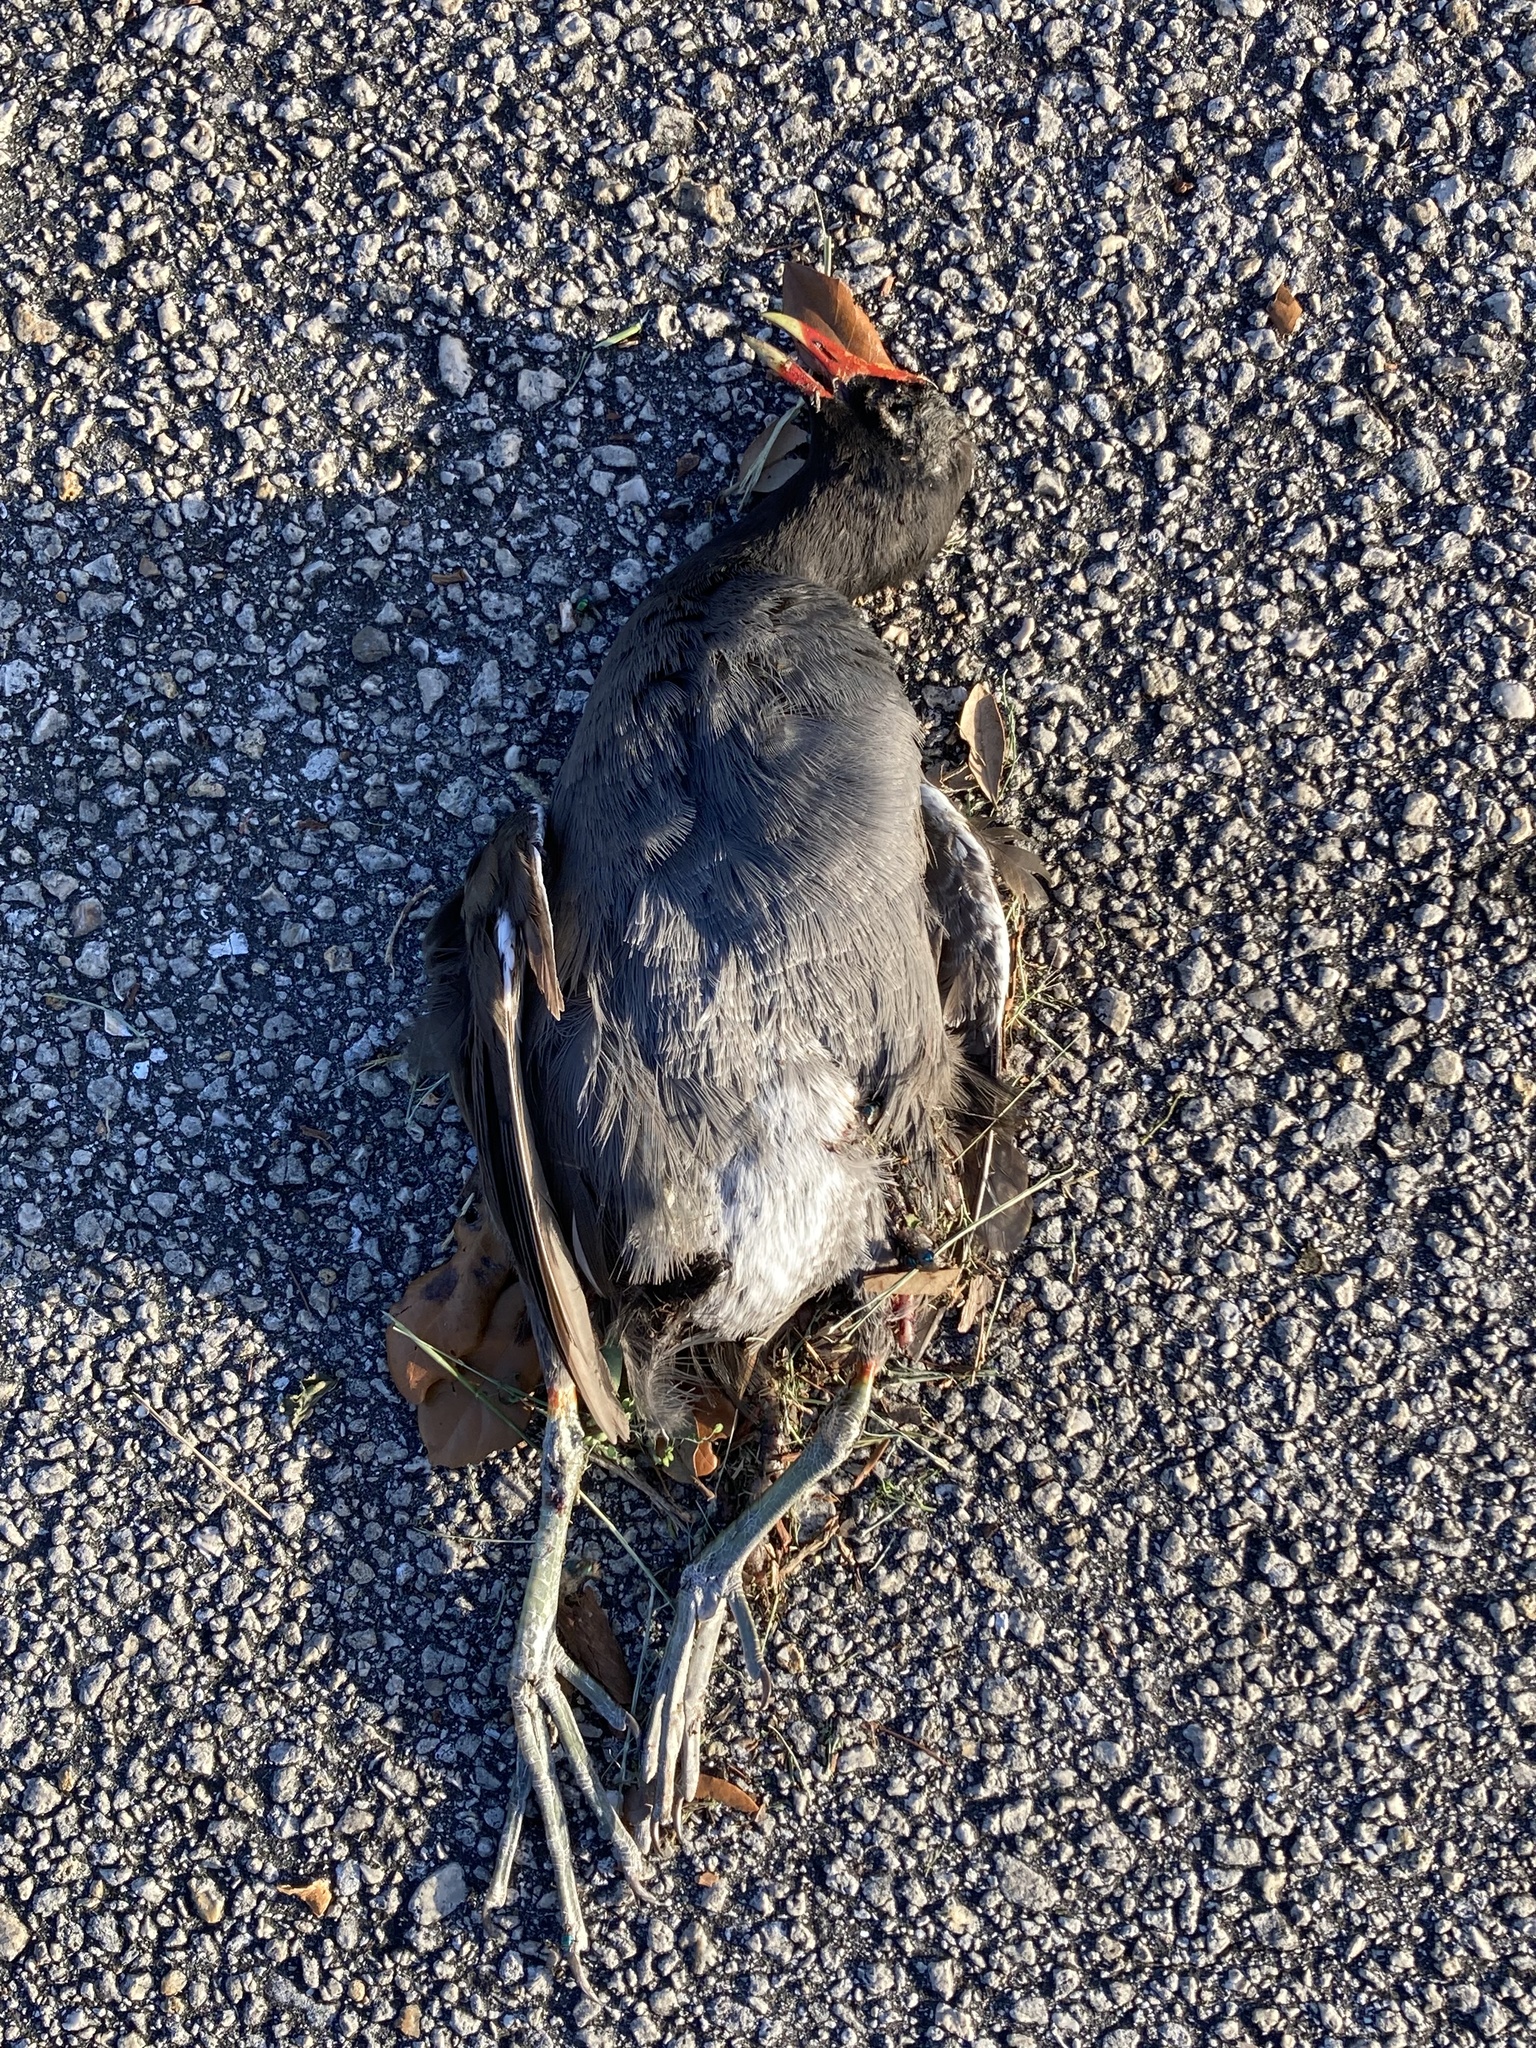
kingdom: Animalia
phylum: Chordata
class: Aves
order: Gruiformes
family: Rallidae
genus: Gallinula
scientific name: Gallinula chloropus
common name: Common moorhen
